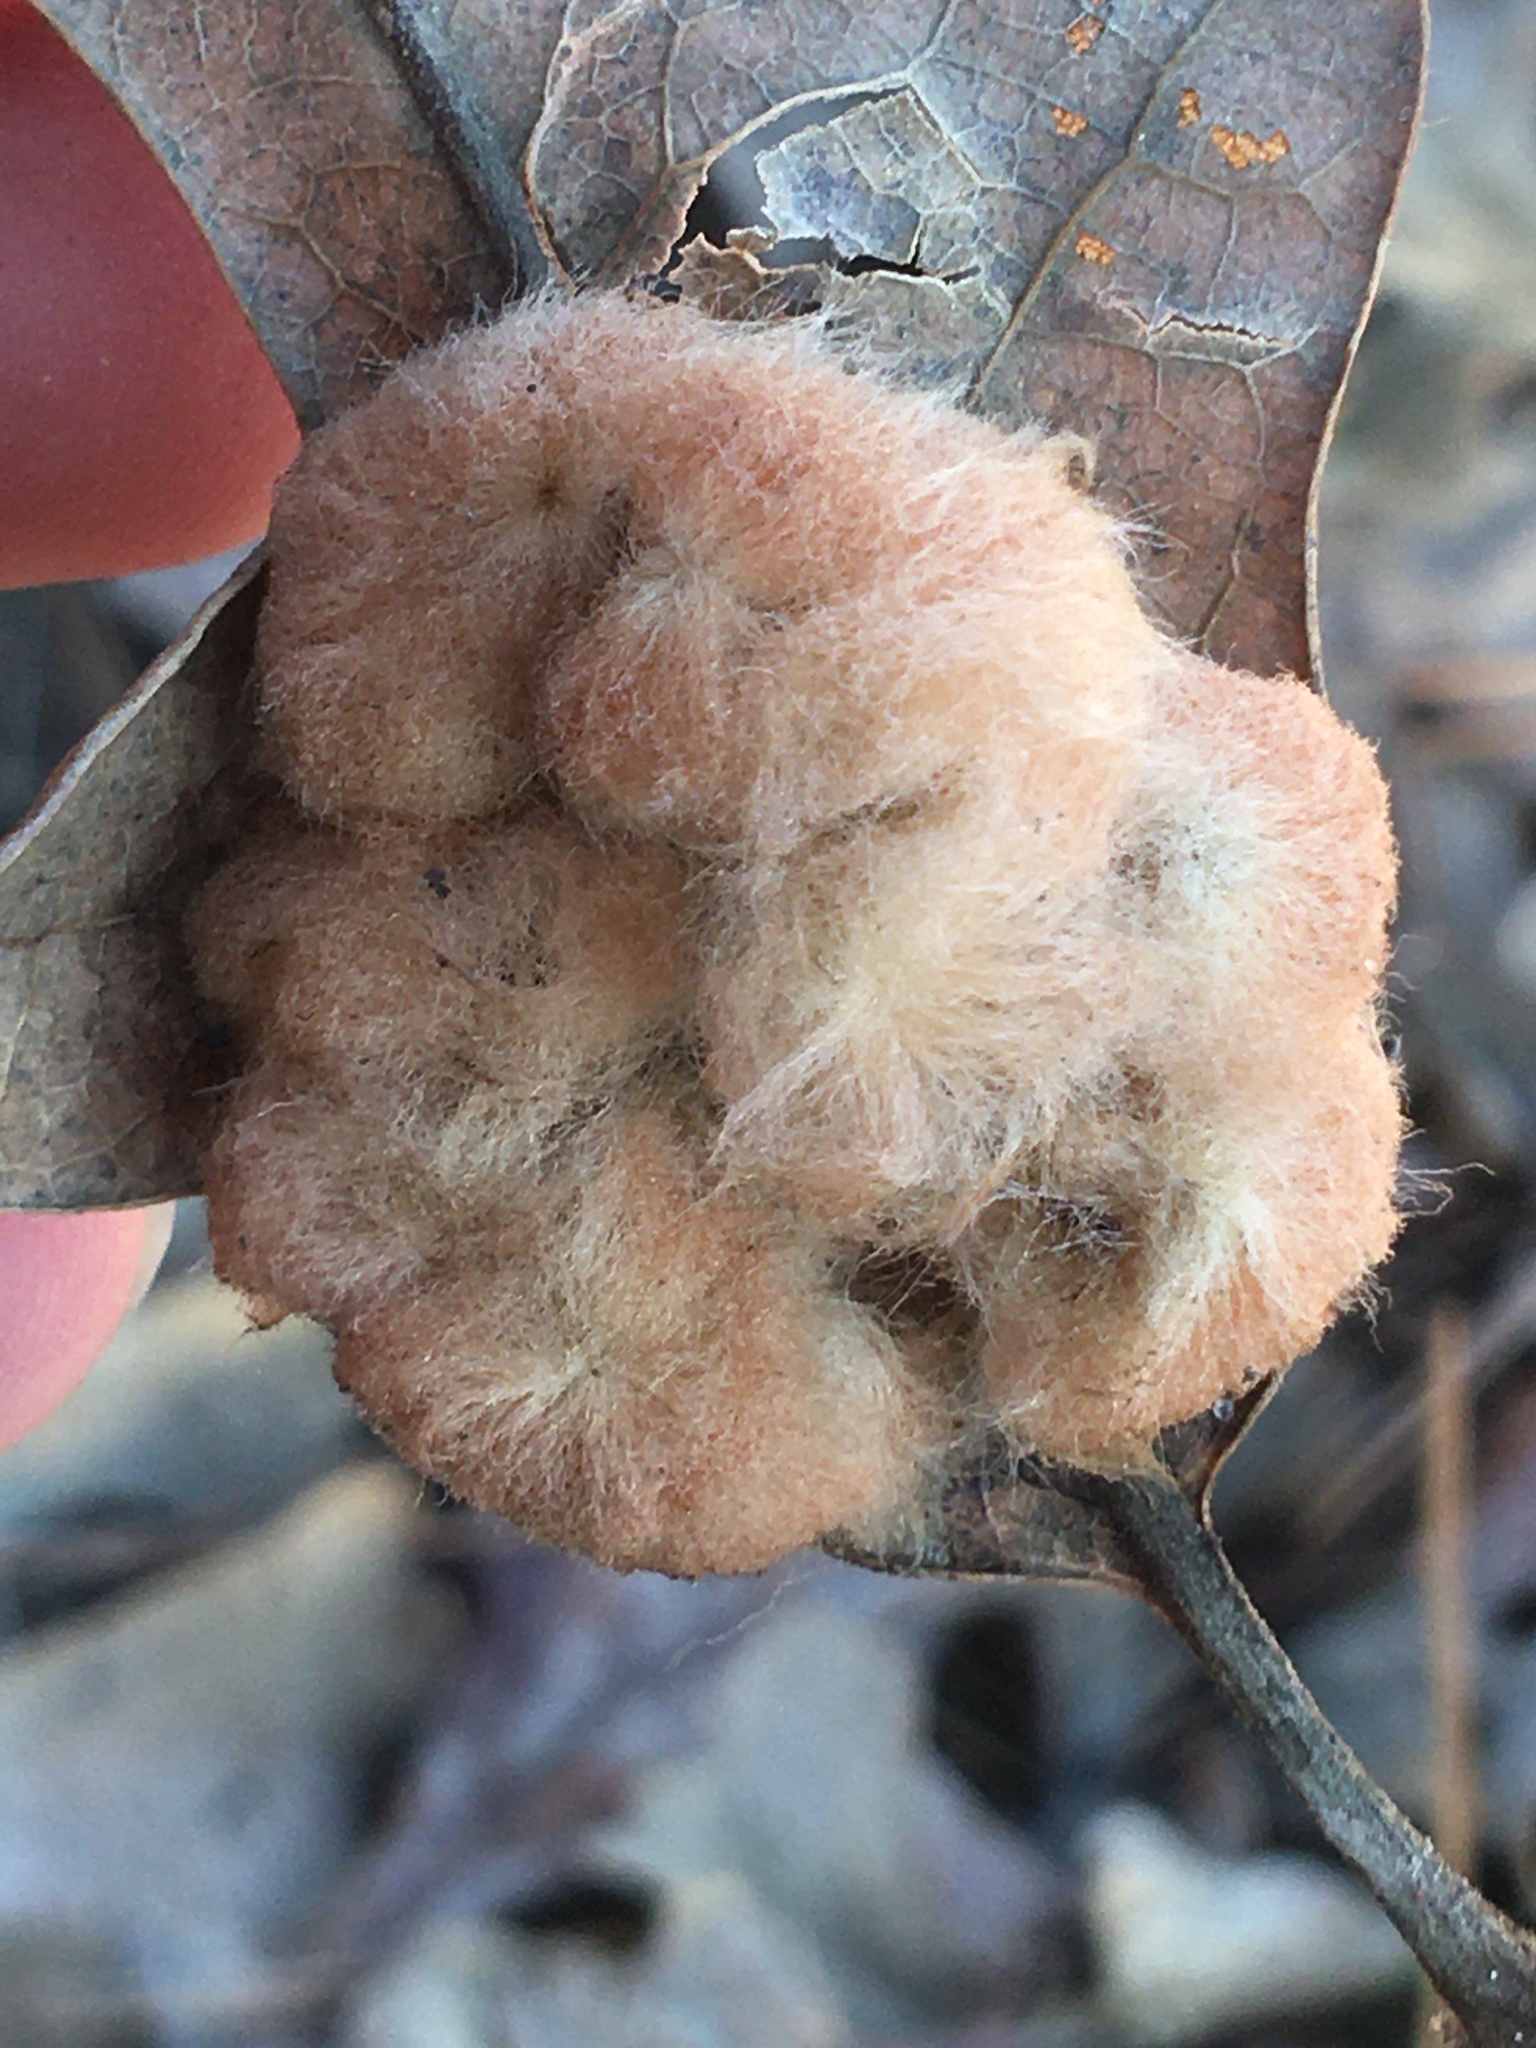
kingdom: Animalia
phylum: Arthropoda
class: Insecta
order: Hymenoptera
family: Cynipidae
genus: Andricus
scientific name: Andricus Druon pattoni
